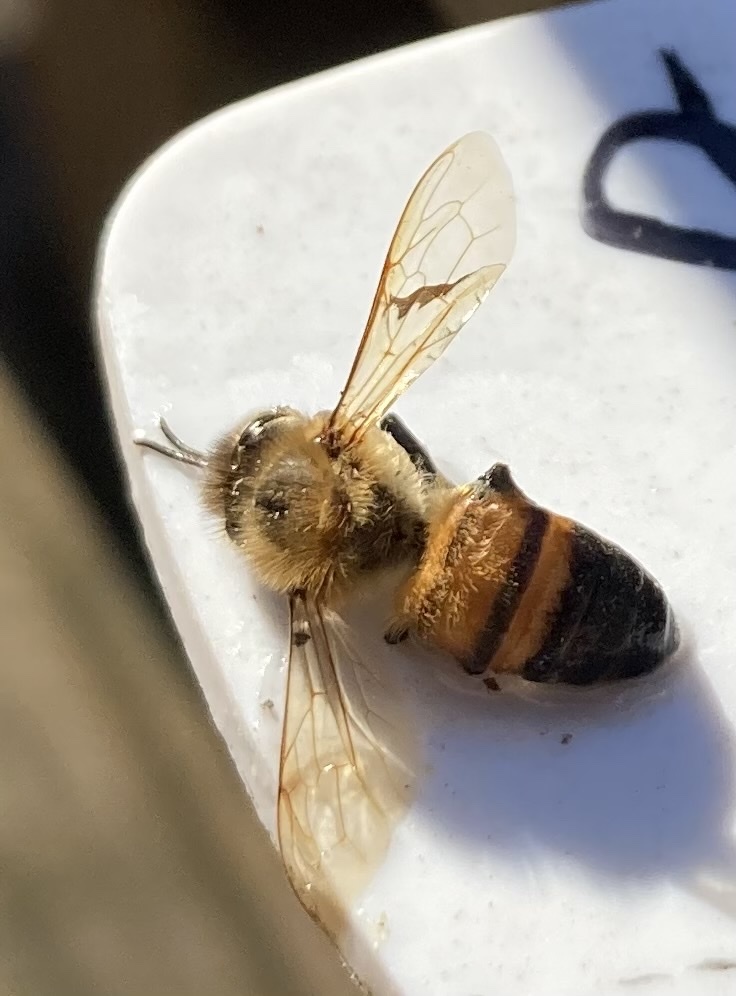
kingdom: Animalia
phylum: Arthropoda
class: Insecta
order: Hymenoptera
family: Apidae
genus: Apis
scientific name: Apis mellifera
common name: Honey bee
